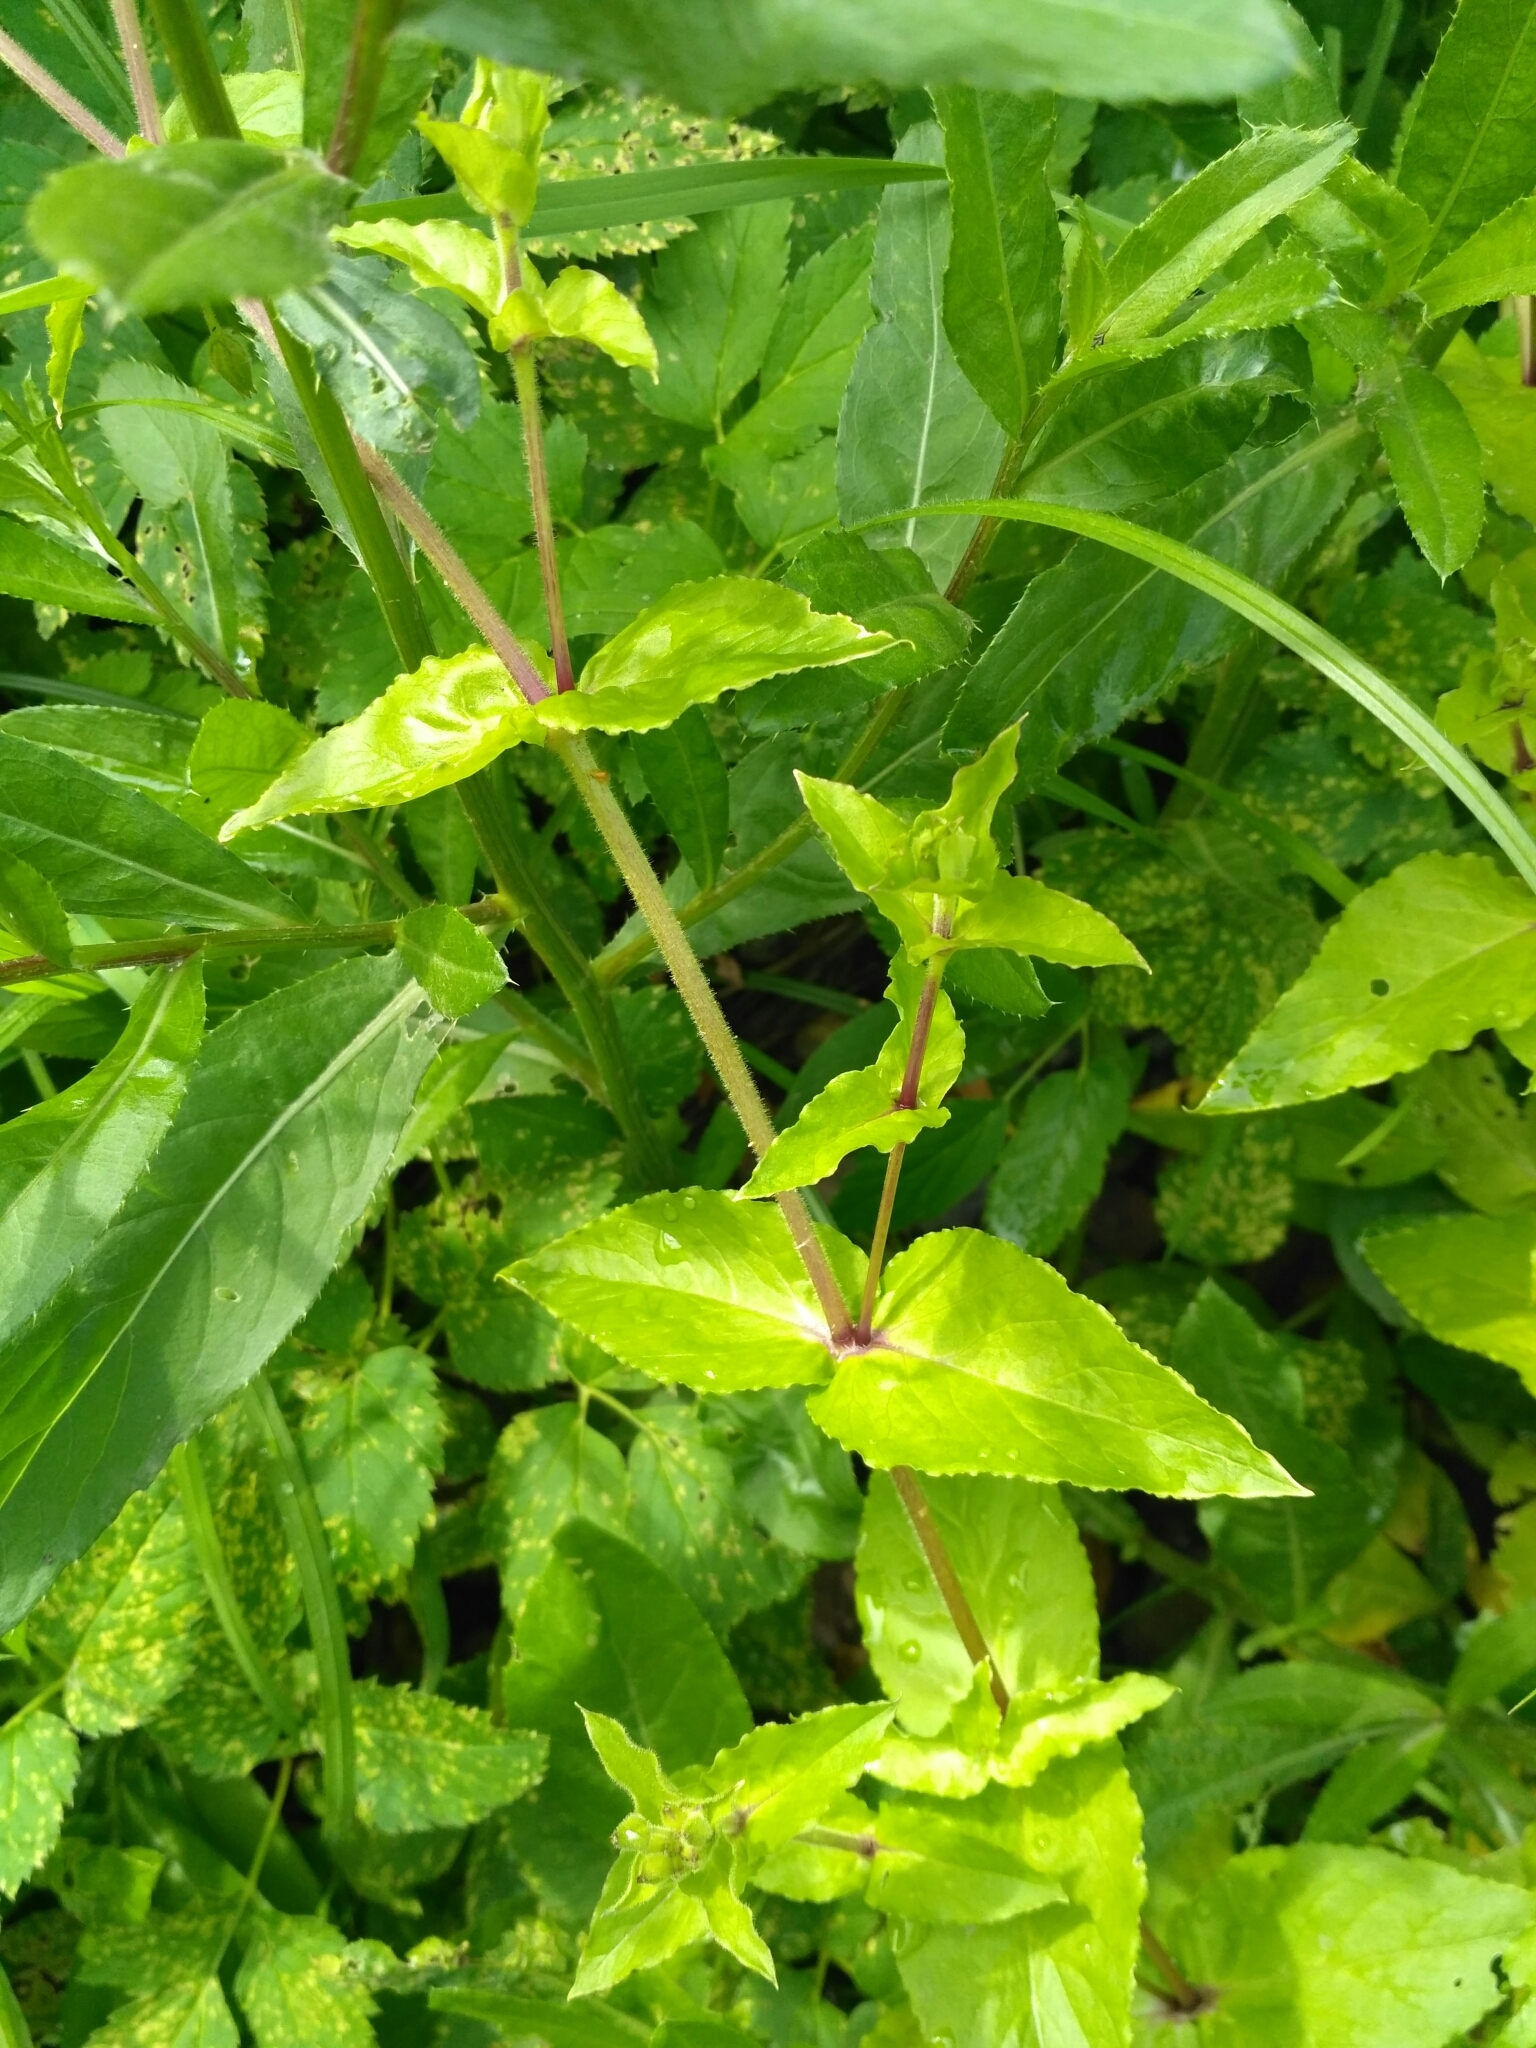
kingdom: Plantae
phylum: Tracheophyta
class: Magnoliopsida
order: Caryophyllales
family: Caryophyllaceae
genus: Stellaria
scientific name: Stellaria aquatica
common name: Water chickweed
